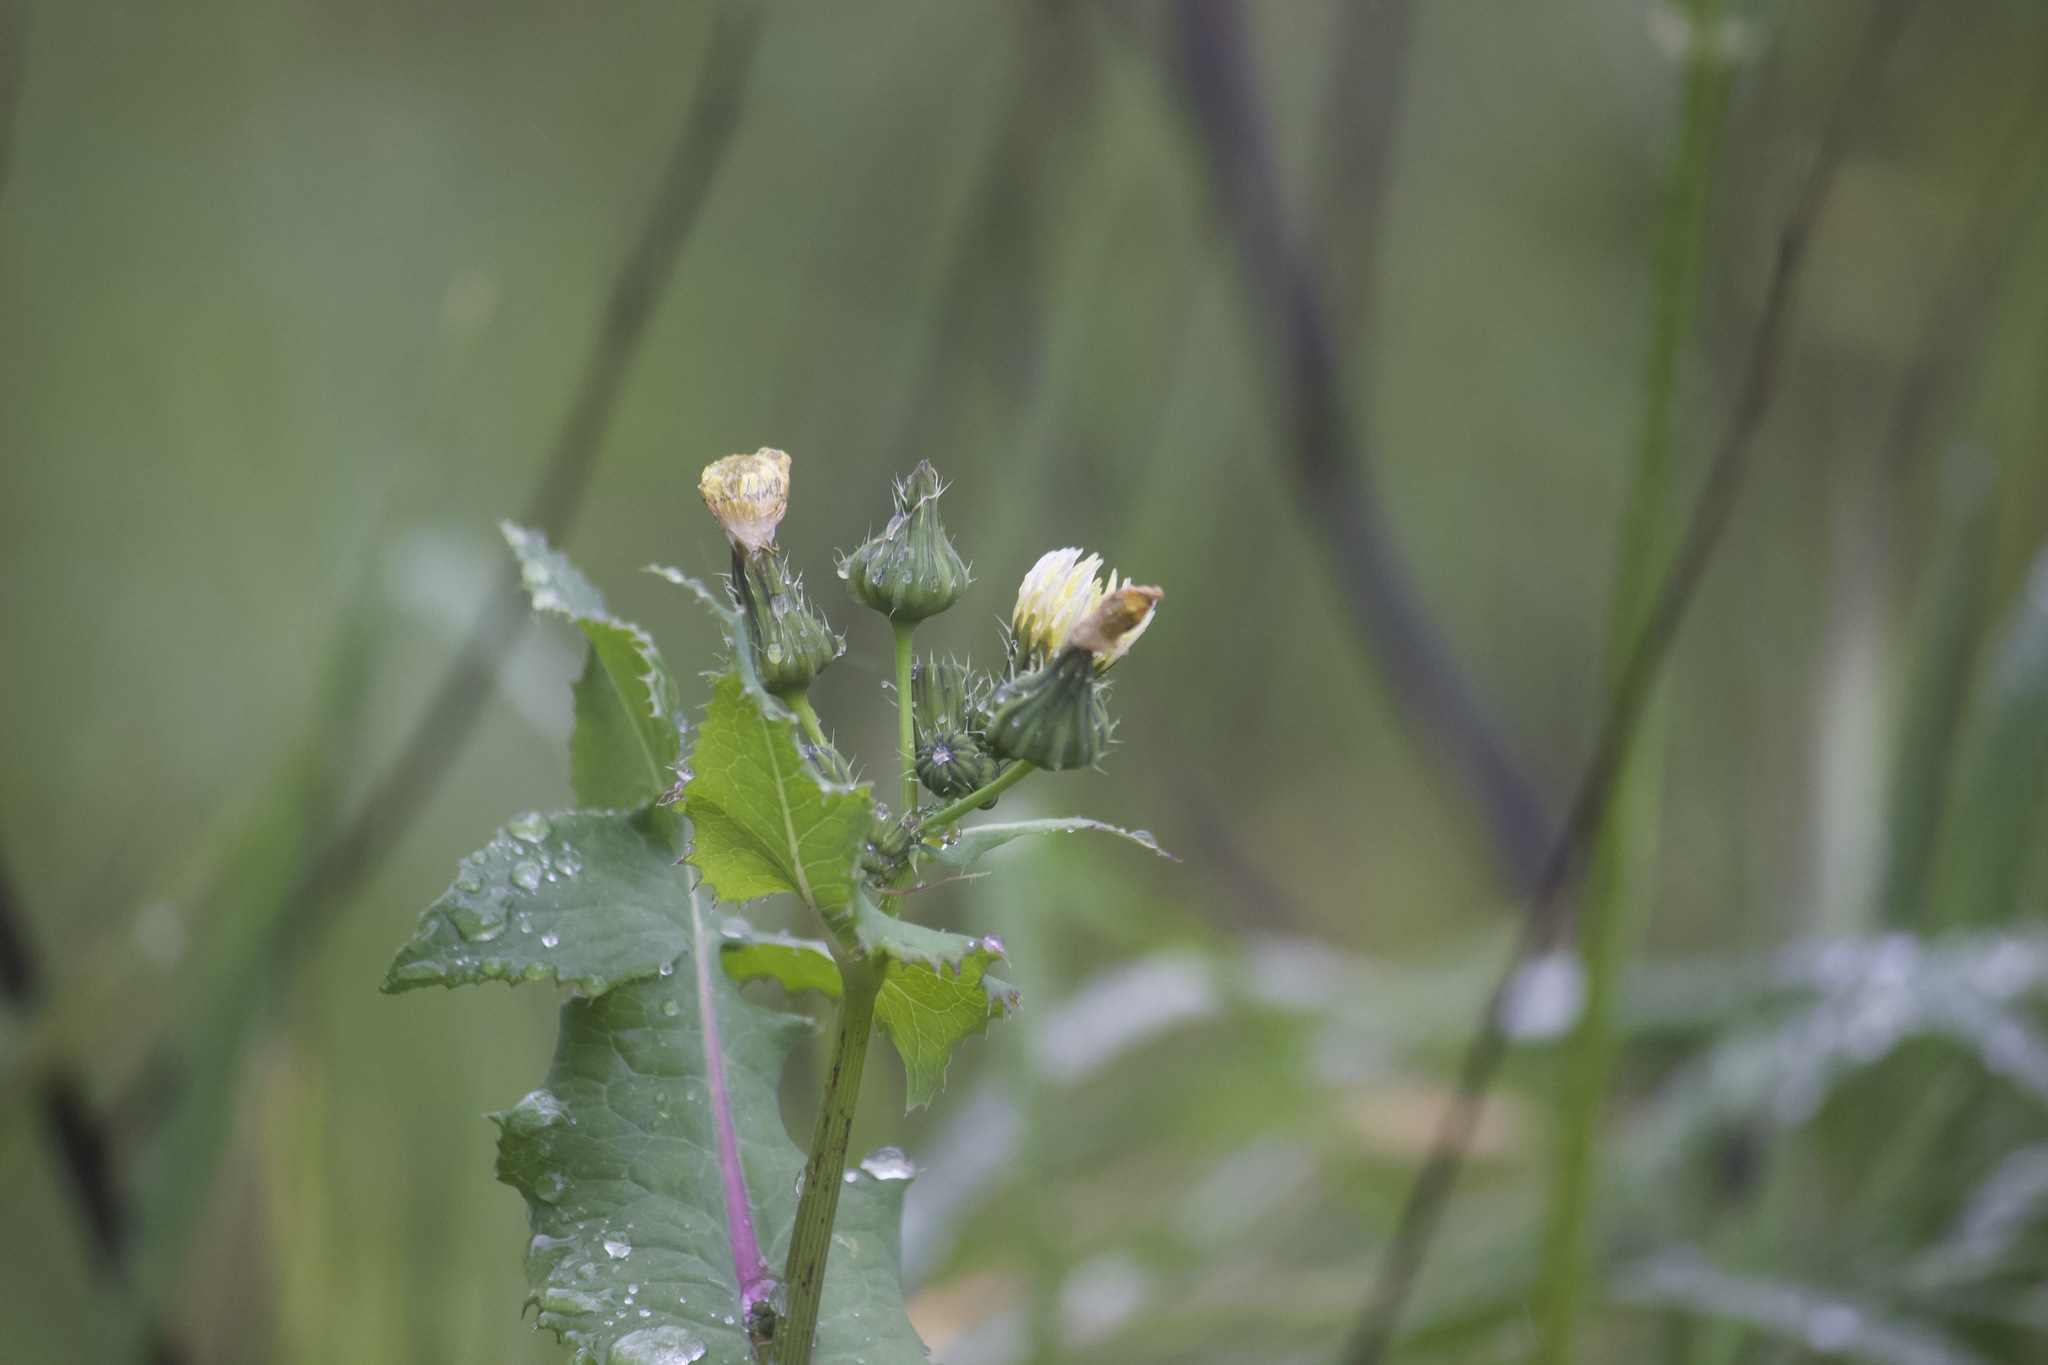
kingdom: Plantae
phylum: Tracheophyta
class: Magnoliopsida
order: Asterales
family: Asteraceae
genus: Sonchus
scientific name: Sonchus oleraceus
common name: Common sowthistle
